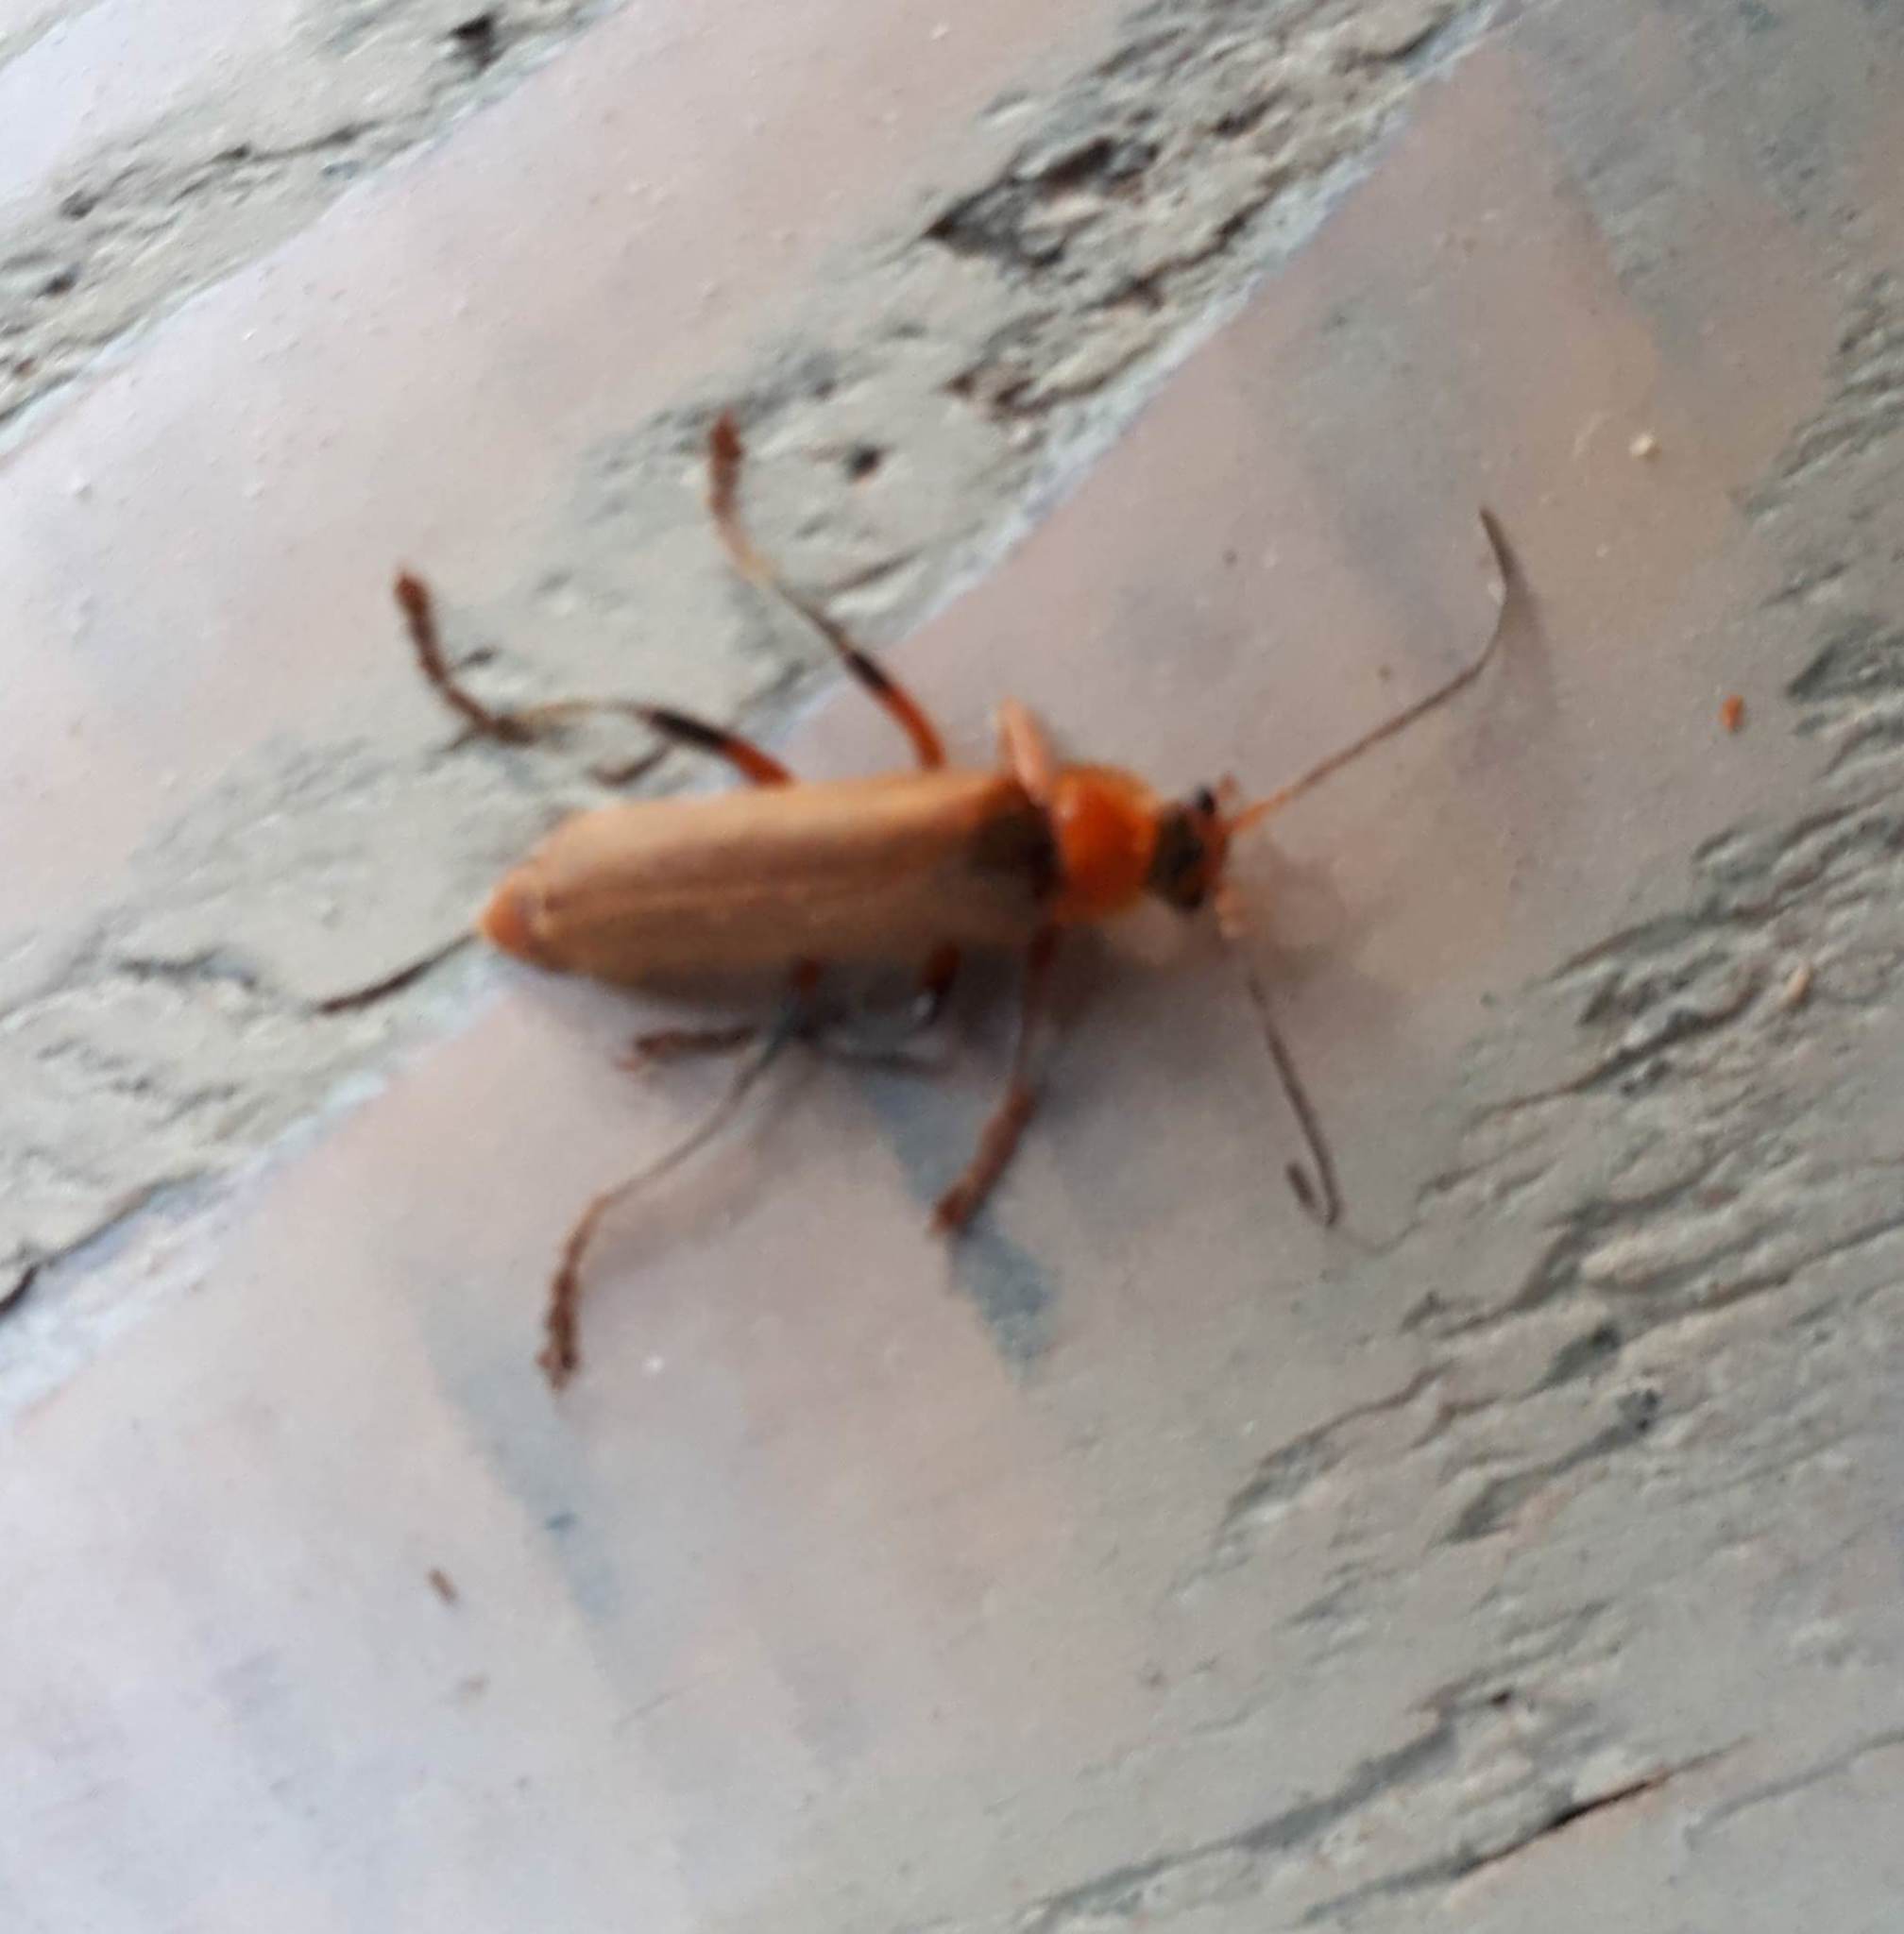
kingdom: Animalia
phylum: Arthropoda
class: Insecta
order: Coleoptera
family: Cantharidae
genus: Cantharis
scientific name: Cantharis livida
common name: Livid soldier beetle
